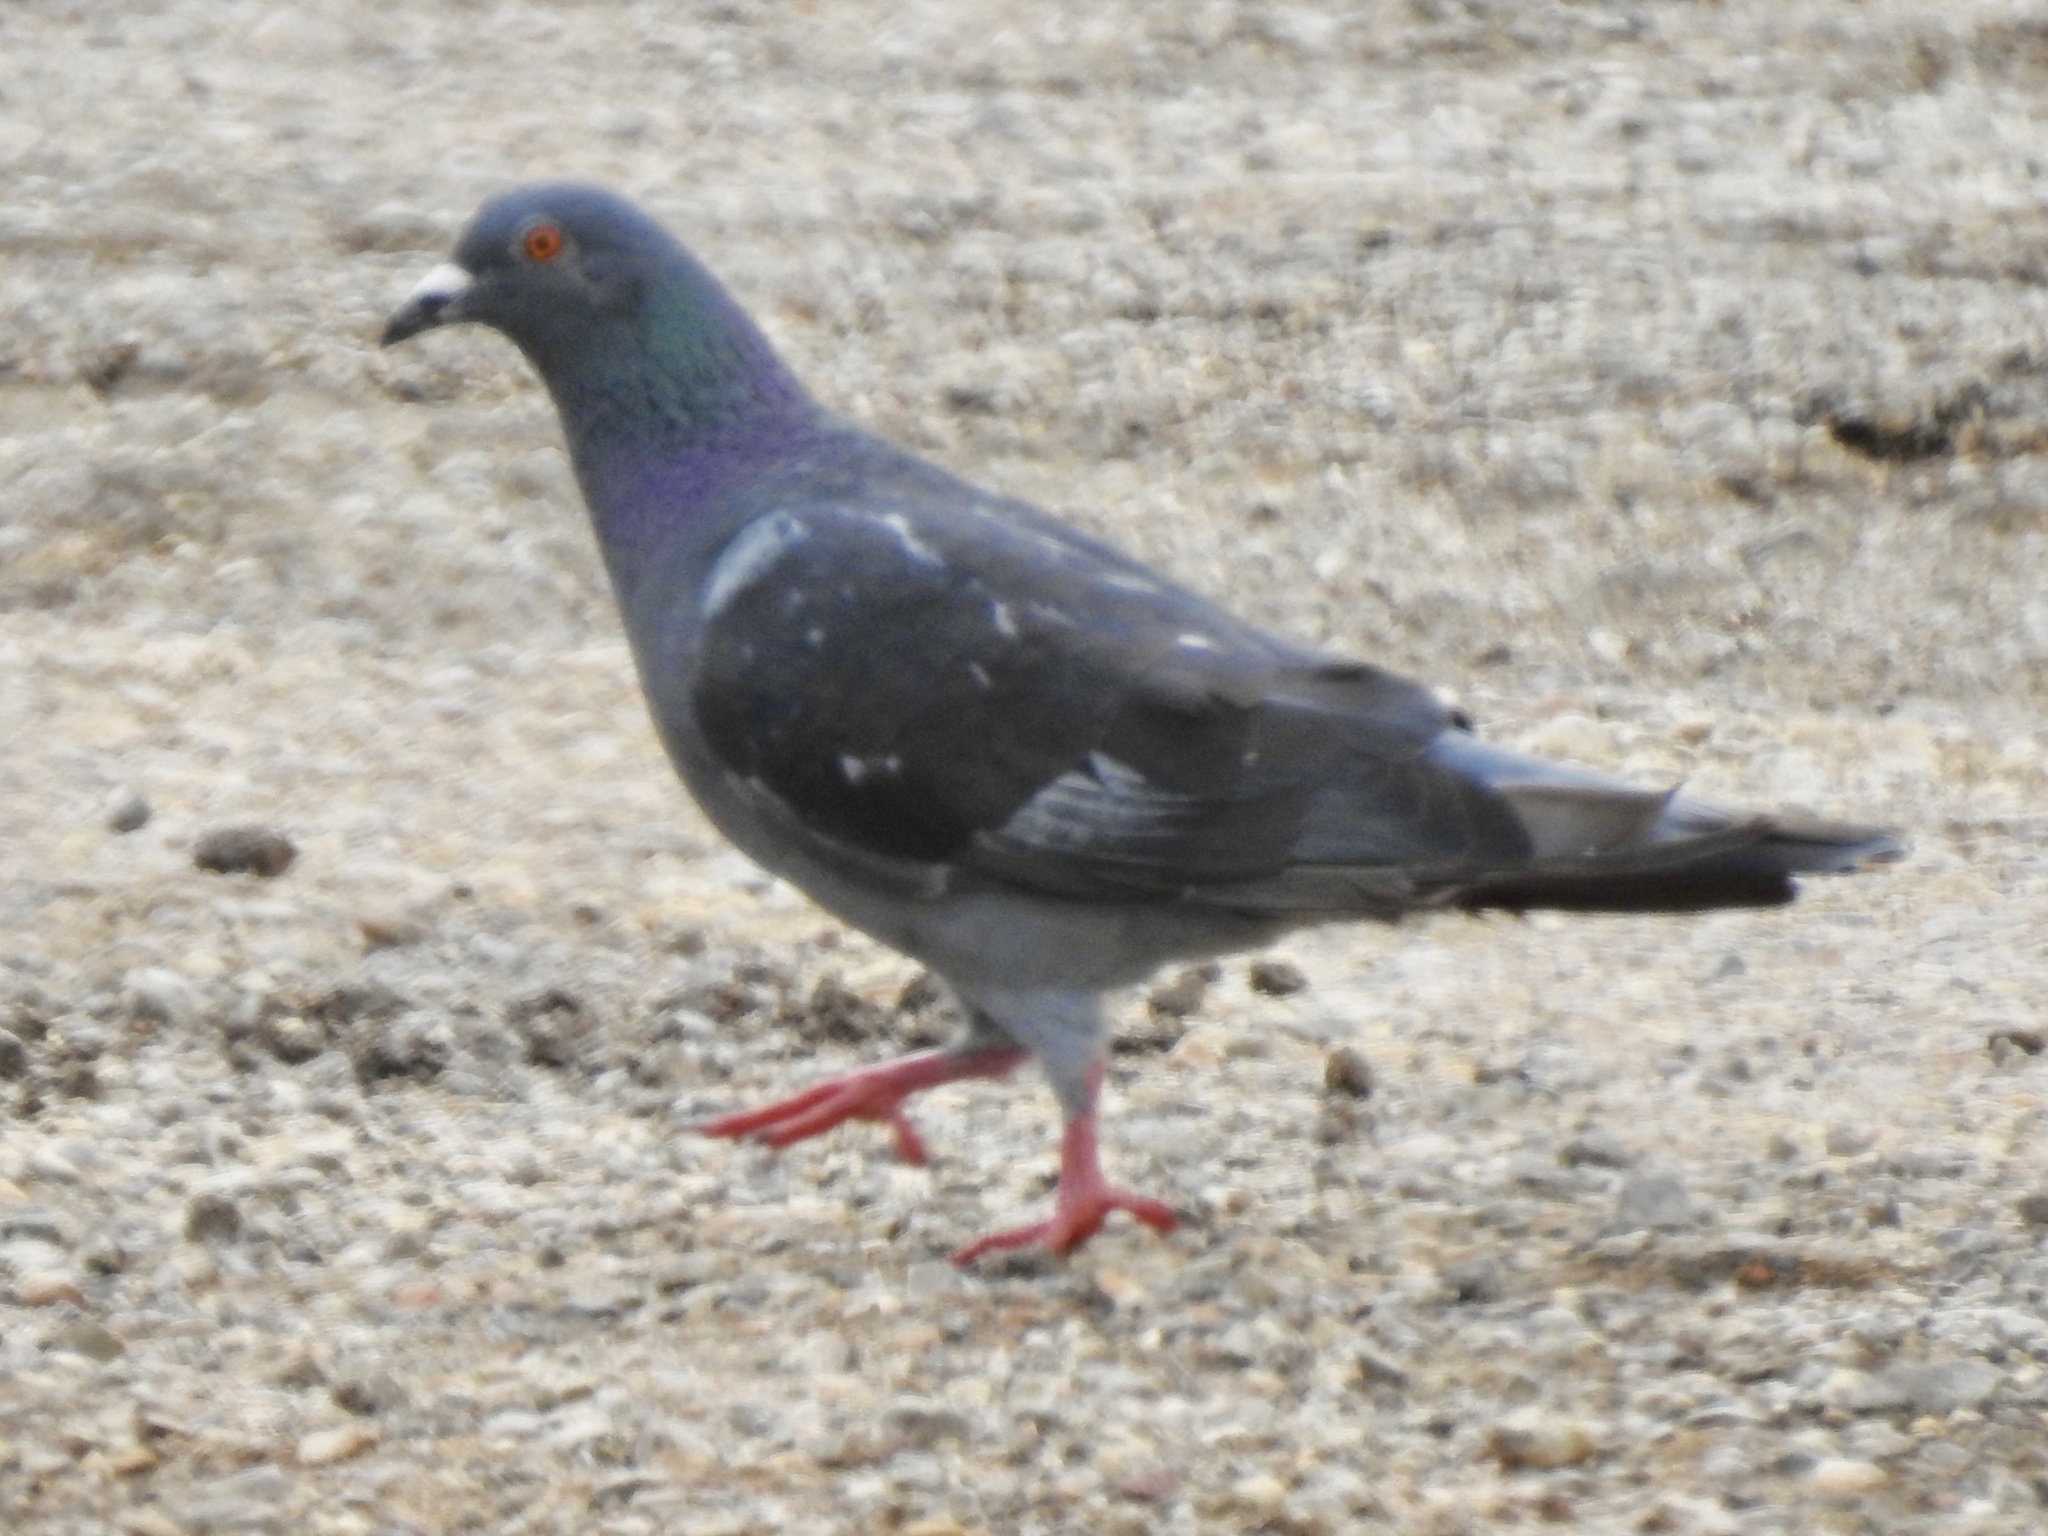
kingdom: Animalia
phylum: Chordata
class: Aves
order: Columbiformes
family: Columbidae
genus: Columba
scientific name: Columba livia
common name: Rock pigeon
